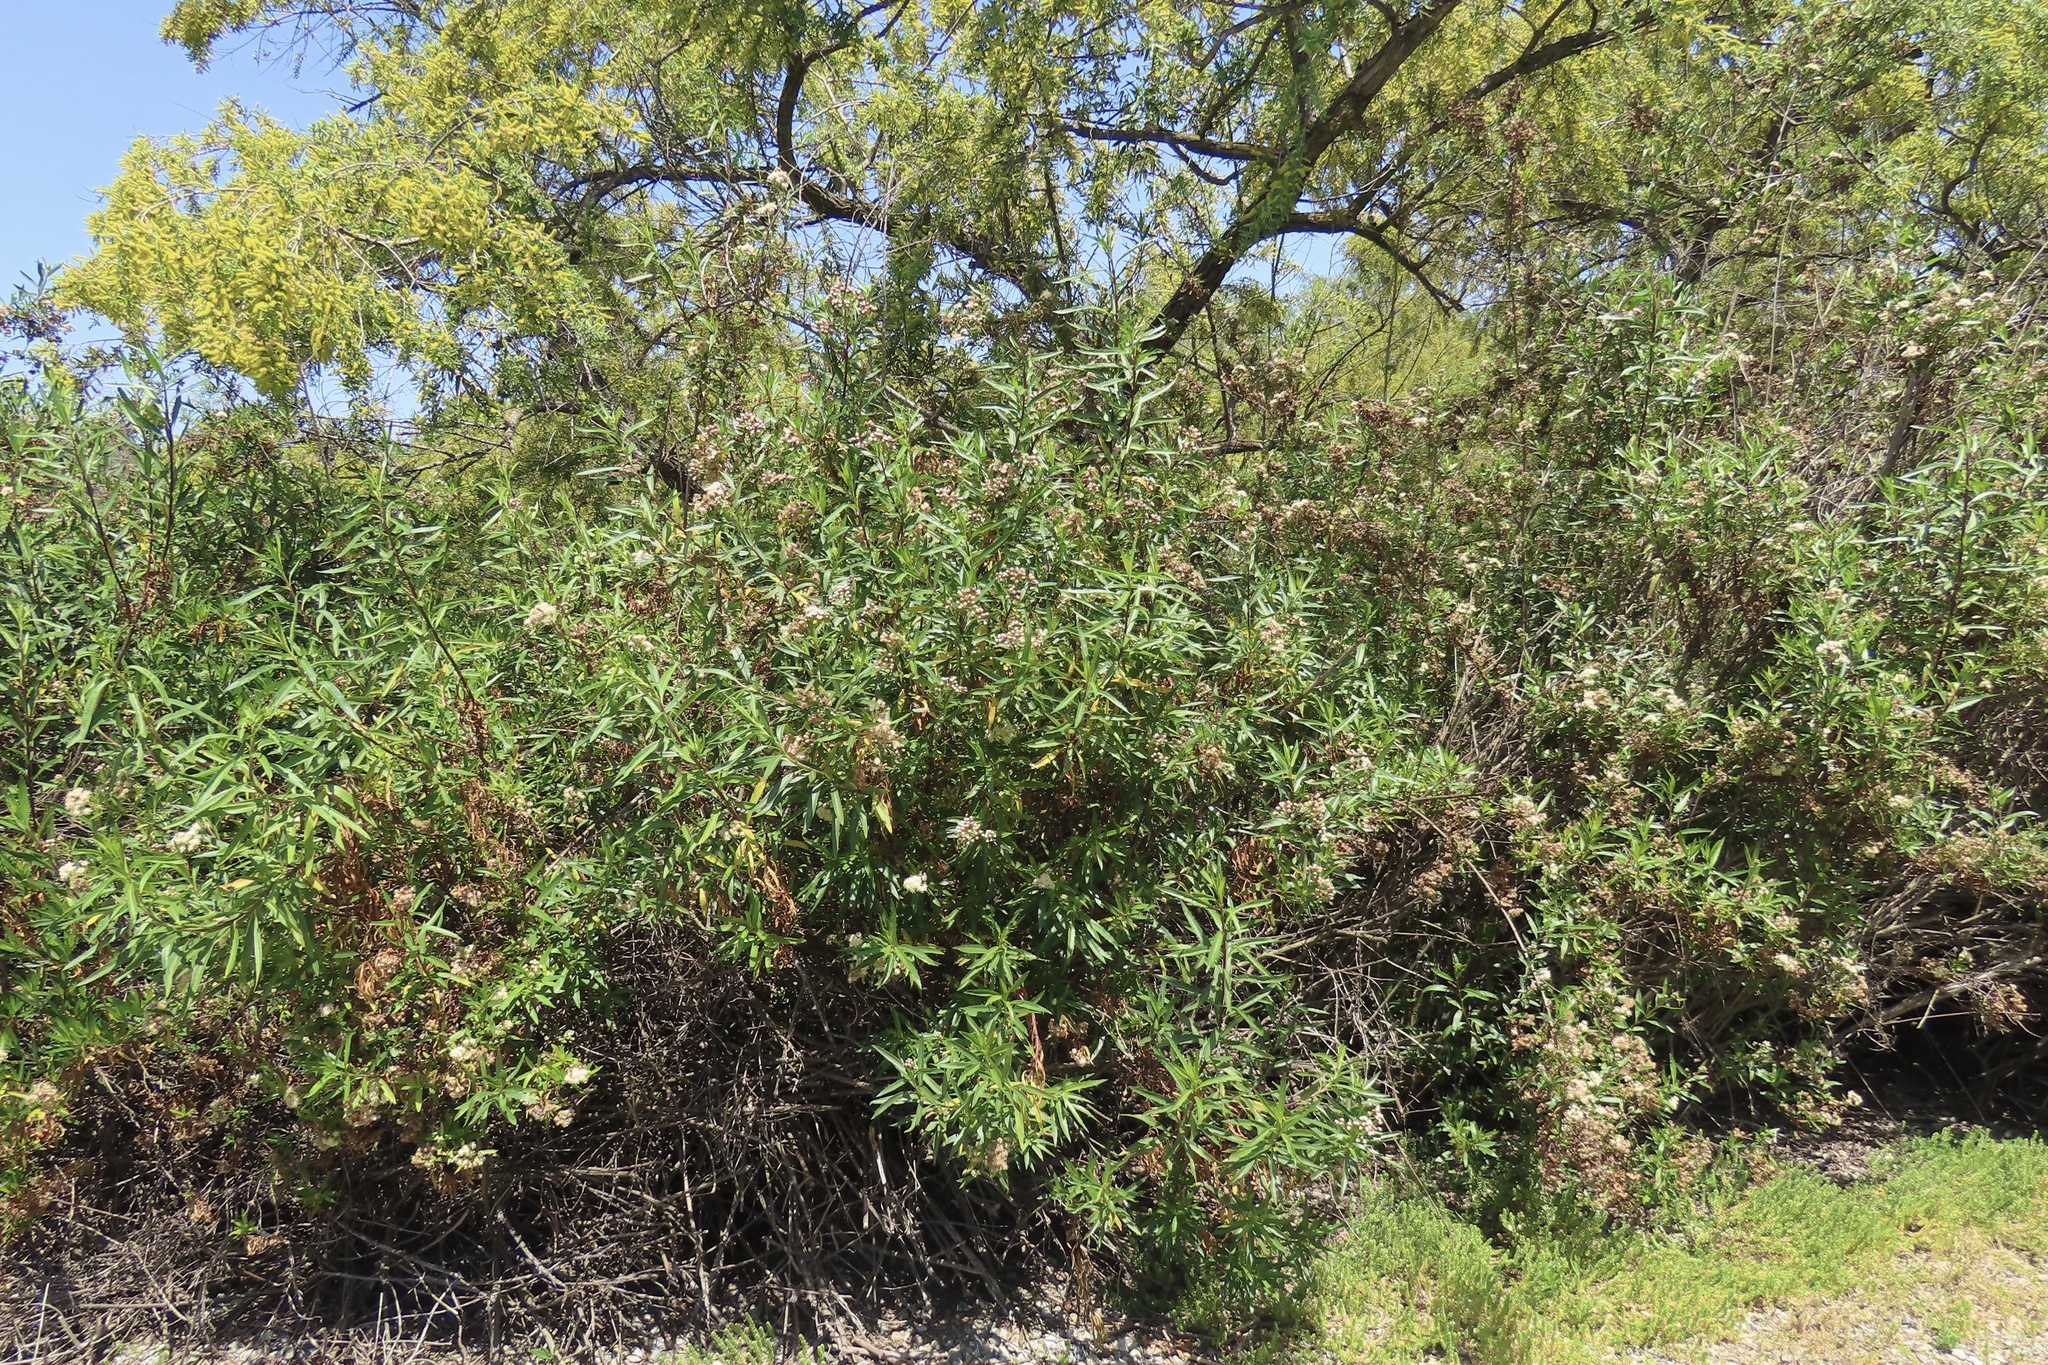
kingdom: Plantae
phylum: Tracheophyta
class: Magnoliopsida
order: Asterales
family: Asteraceae
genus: Baccharis
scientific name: Baccharis salicifolia
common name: Sticky baccharis
